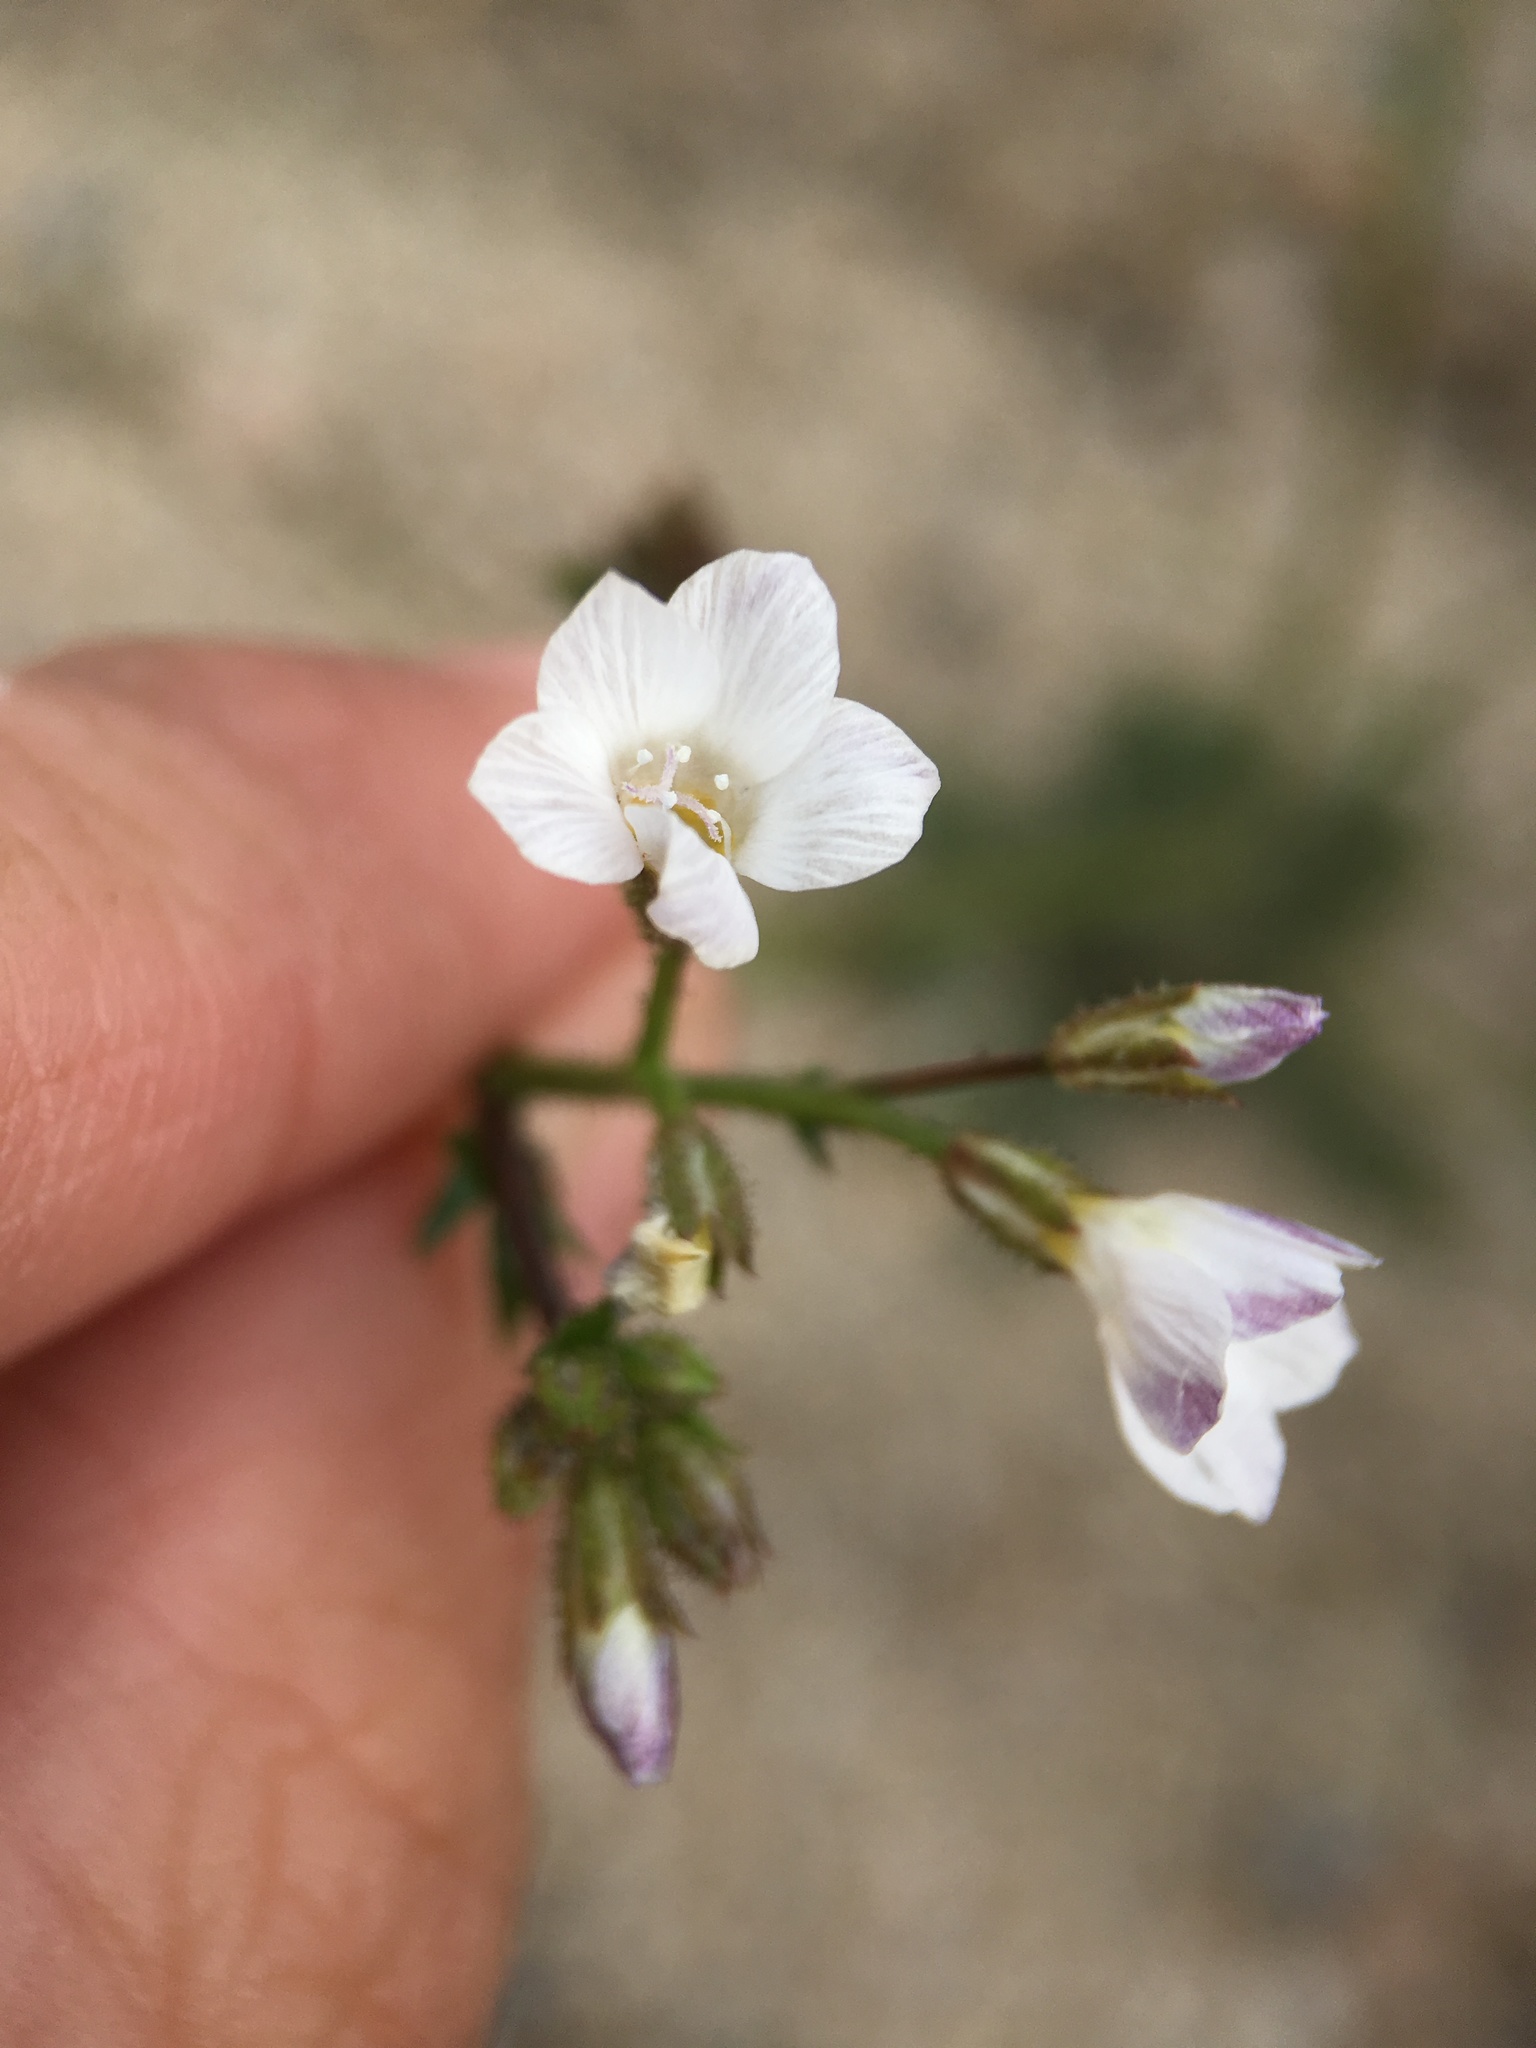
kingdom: Plantae
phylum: Tracheophyta
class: Magnoliopsida
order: Ericales
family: Polemoniaceae
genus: Gilia
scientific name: Gilia stellata
